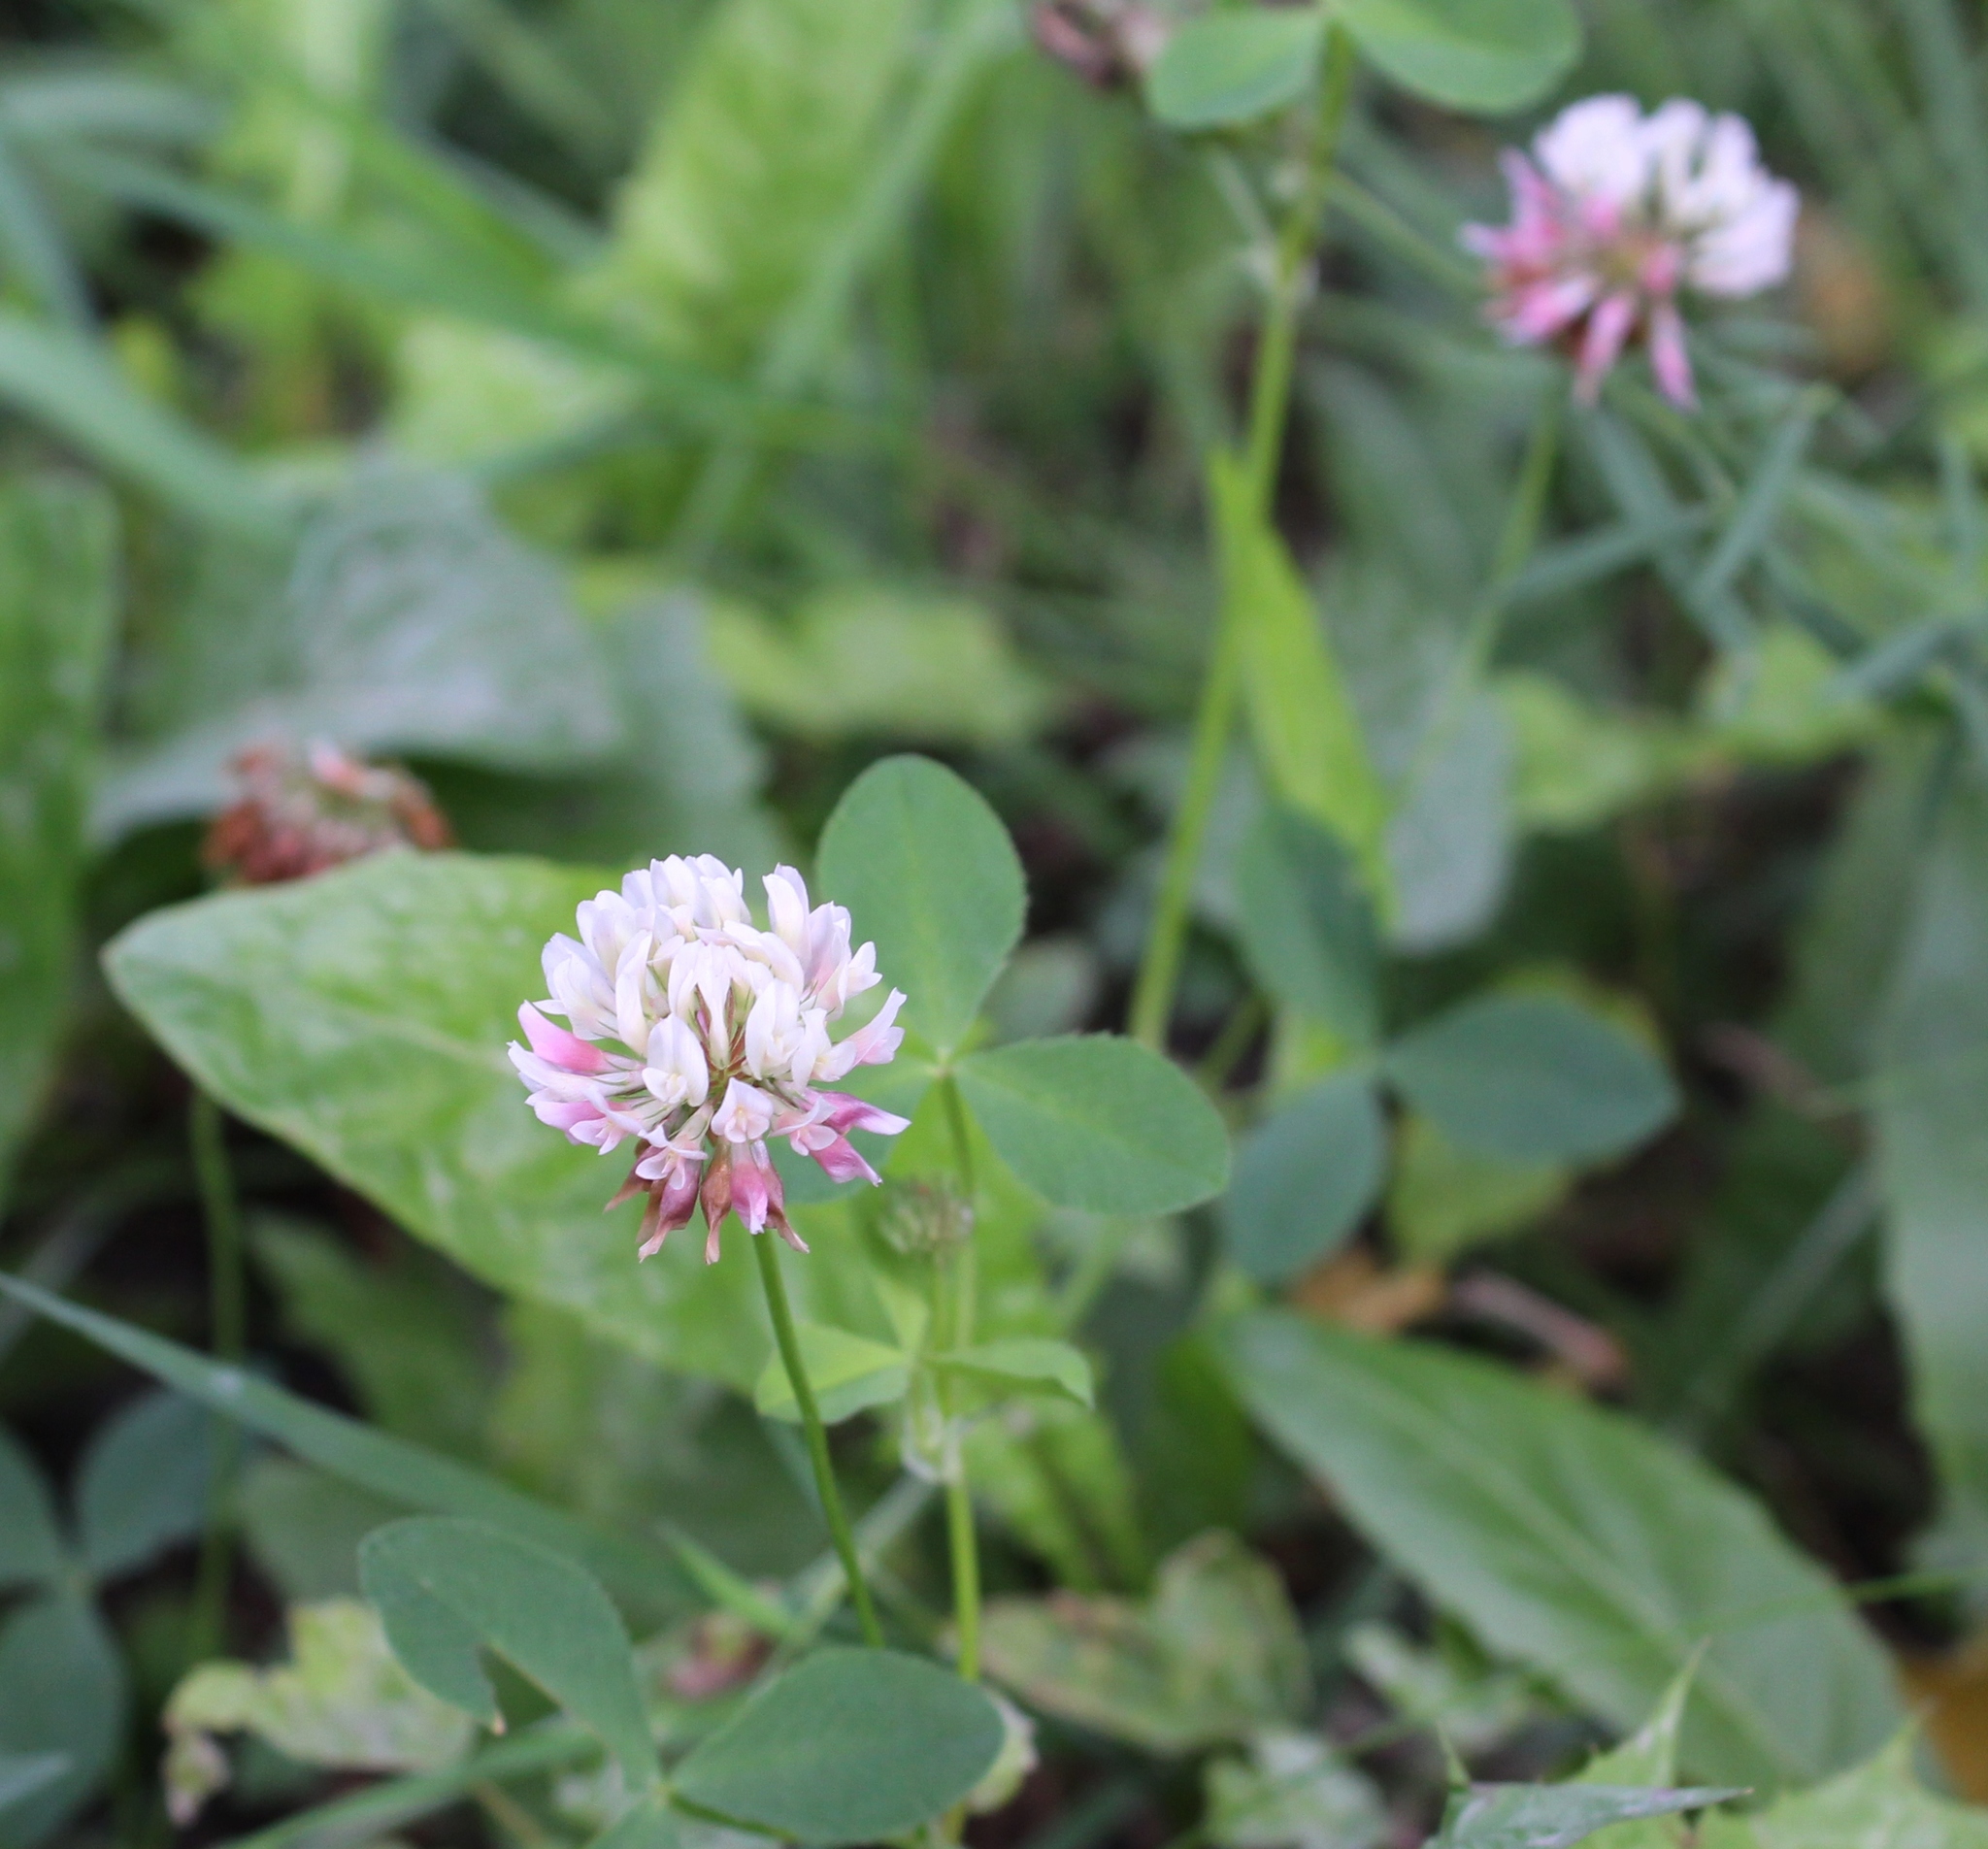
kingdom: Plantae
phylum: Tracheophyta
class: Magnoliopsida
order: Fabales
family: Fabaceae
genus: Trifolium
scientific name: Trifolium hybridum
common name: Alsike clover
